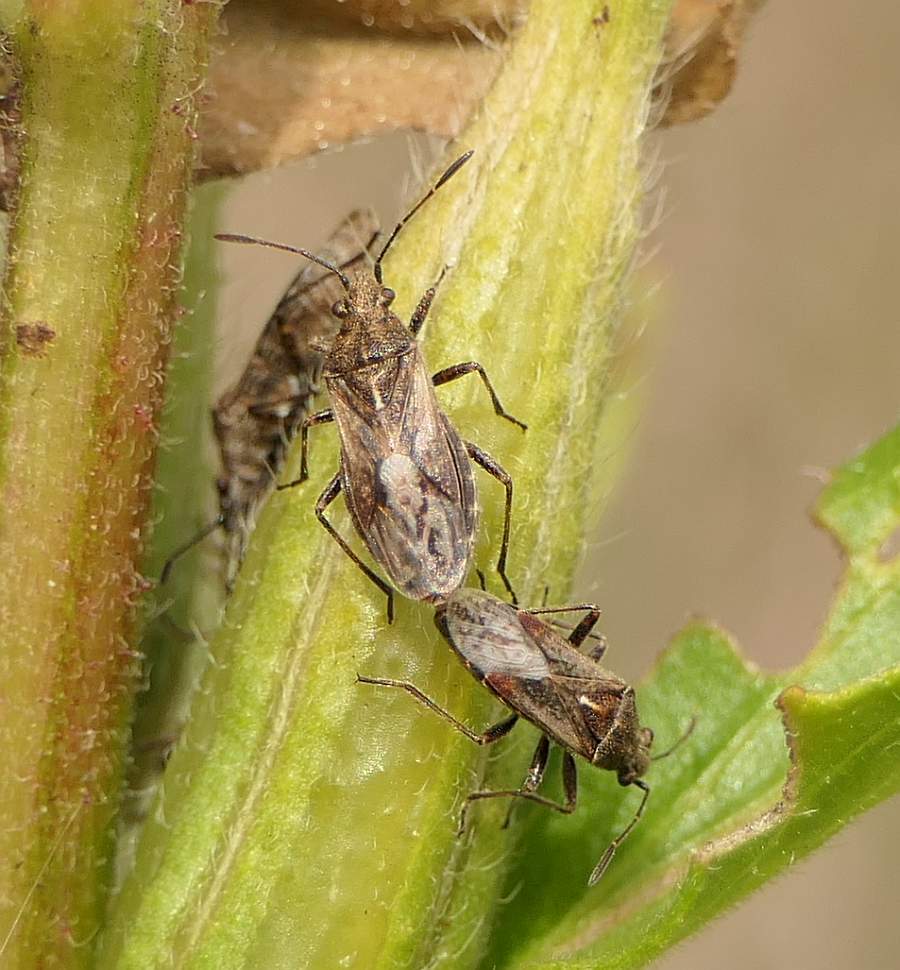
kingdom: Animalia
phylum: Arthropoda
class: Insecta
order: Hemiptera
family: Lygaeidae
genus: Neortholomus
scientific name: Neortholomus scolopax
